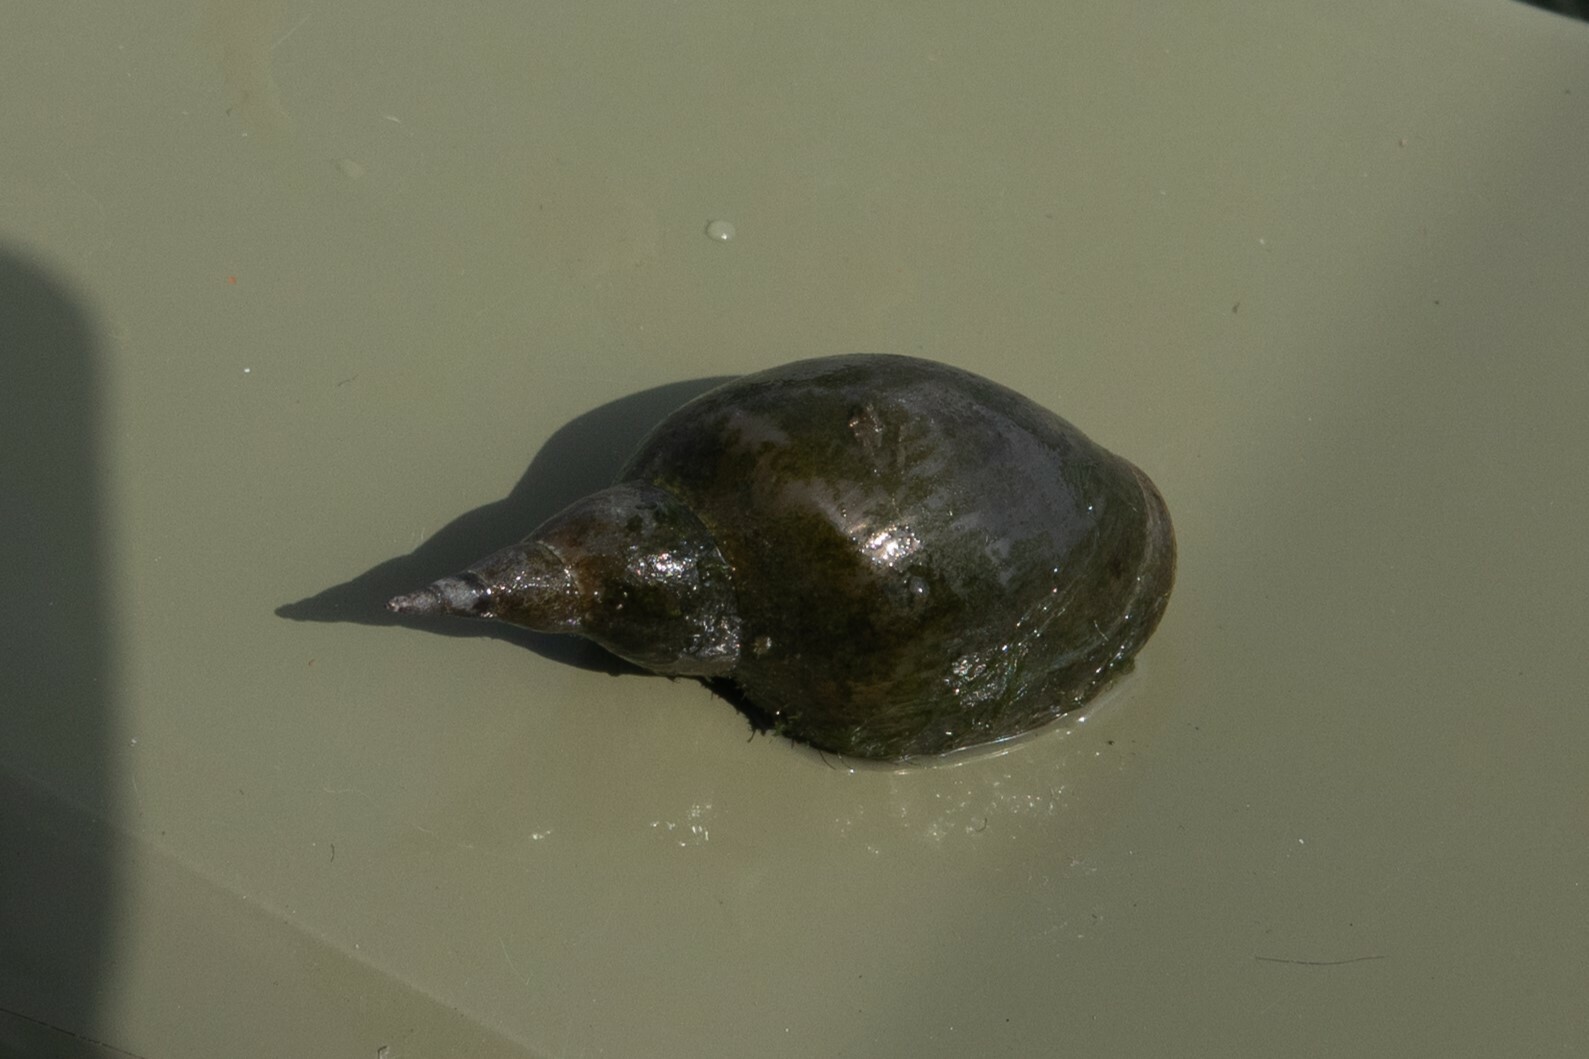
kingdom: Animalia
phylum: Mollusca
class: Gastropoda
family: Lymnaeidae
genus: Lymnaea
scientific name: Lymnaea stagnalis
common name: Great pond snail
